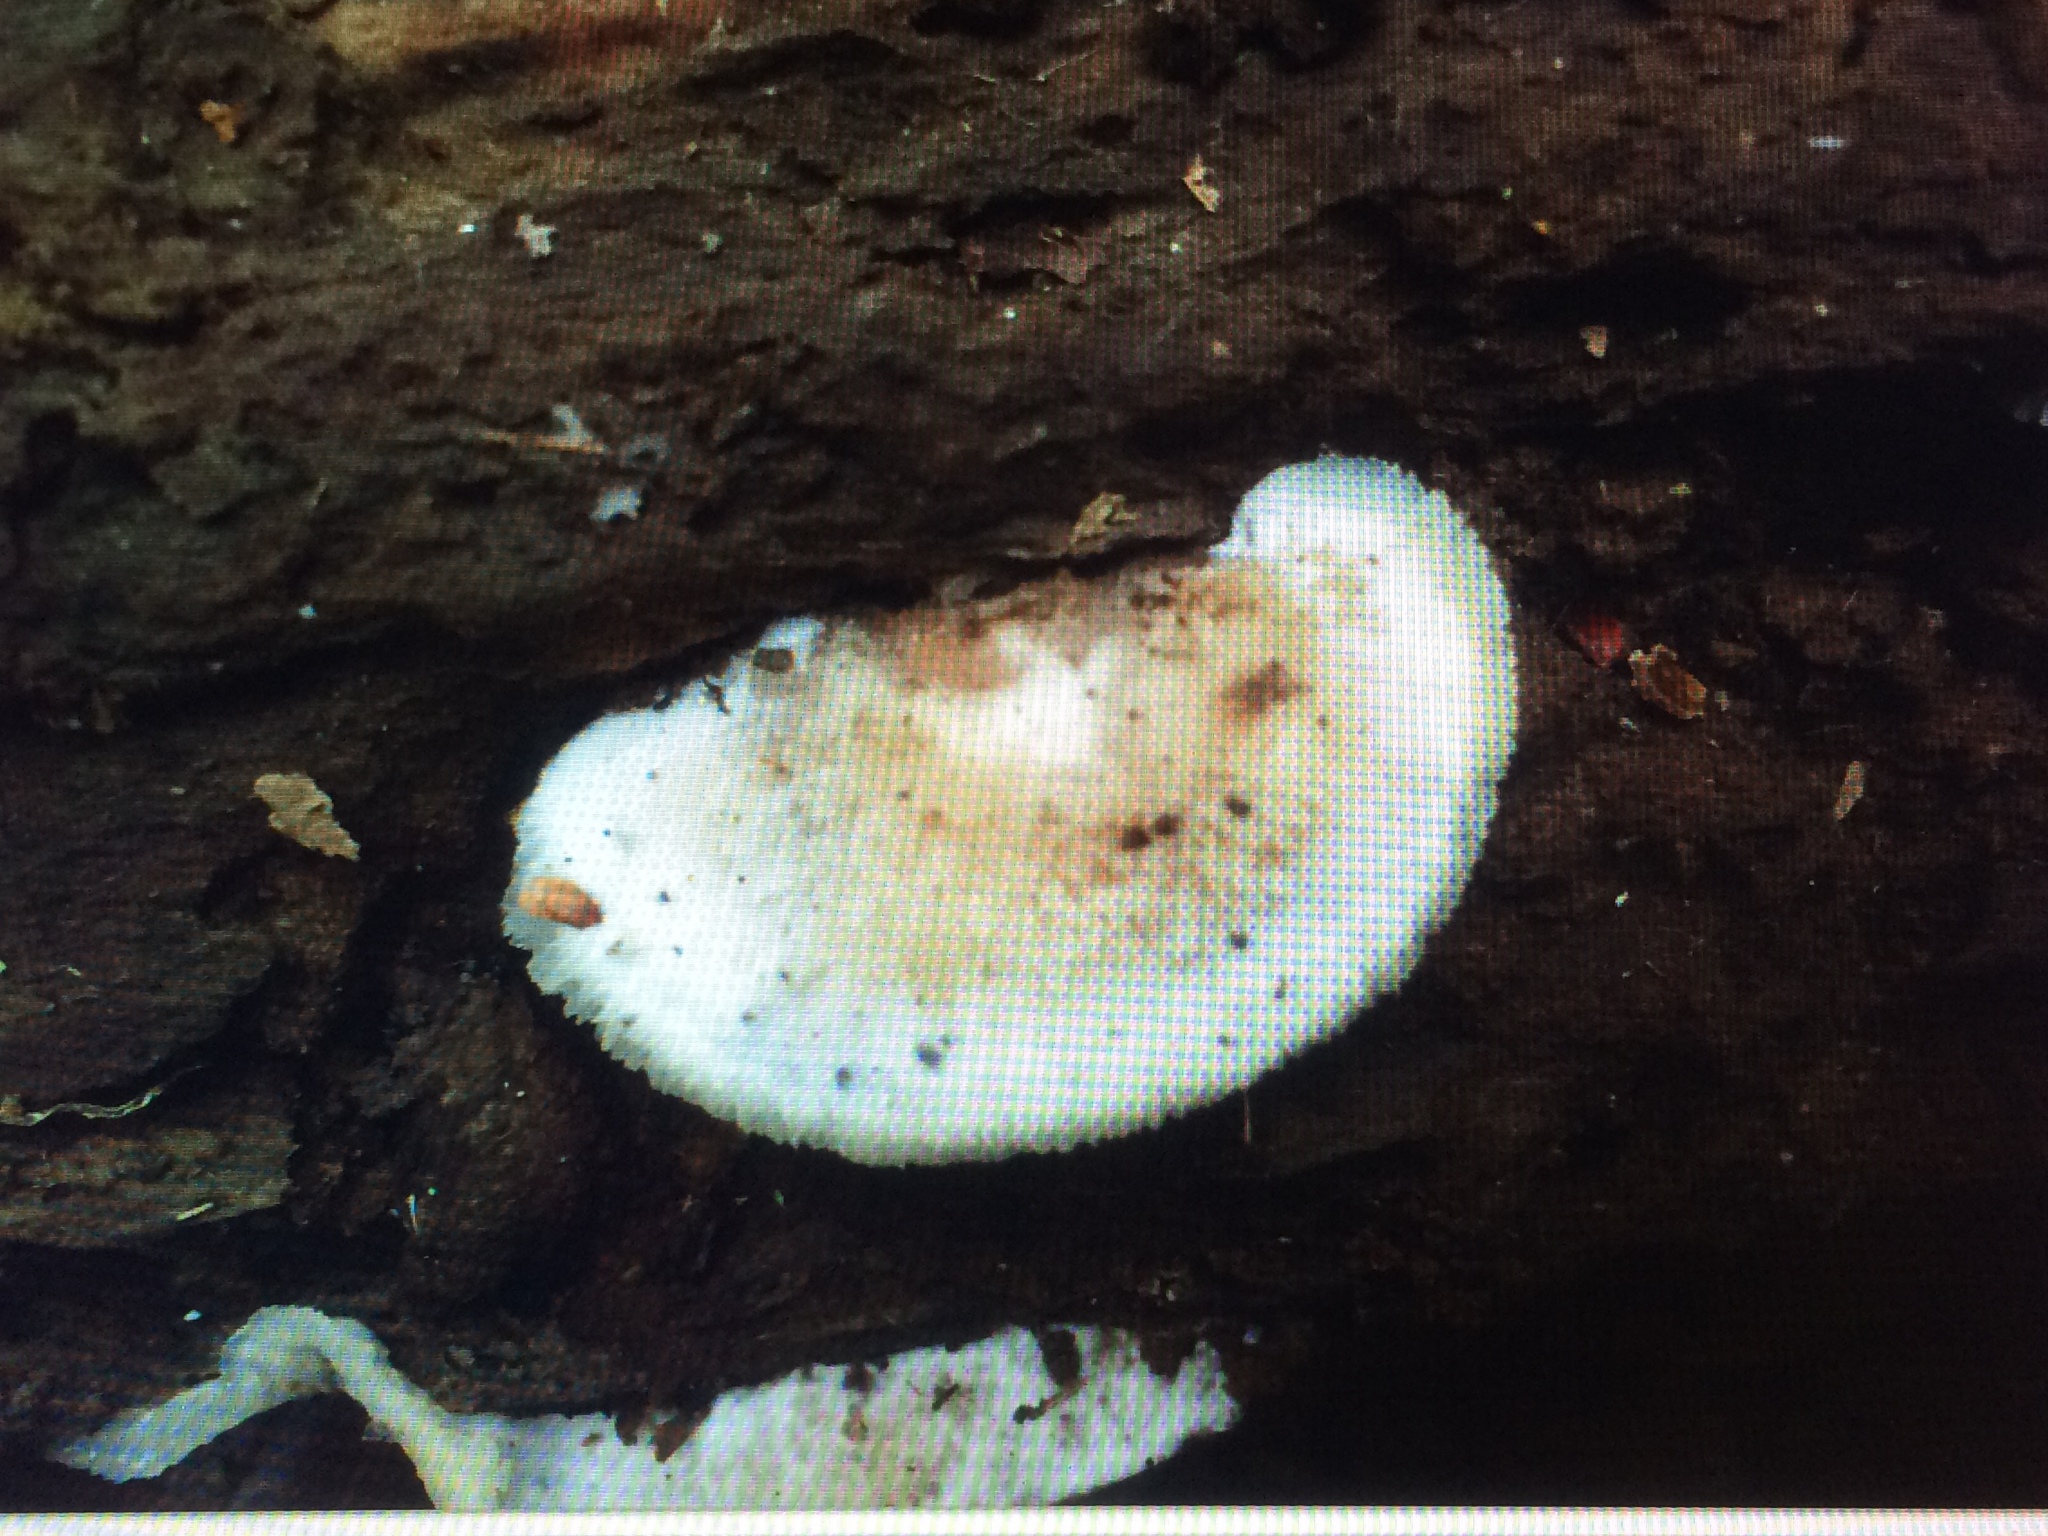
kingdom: Fungi
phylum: Basidiomycota
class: Agaricomycetes
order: Polyporales
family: Meruliaceae
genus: Phlebia
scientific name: Phlebia tremellosa
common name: Jelly rot
